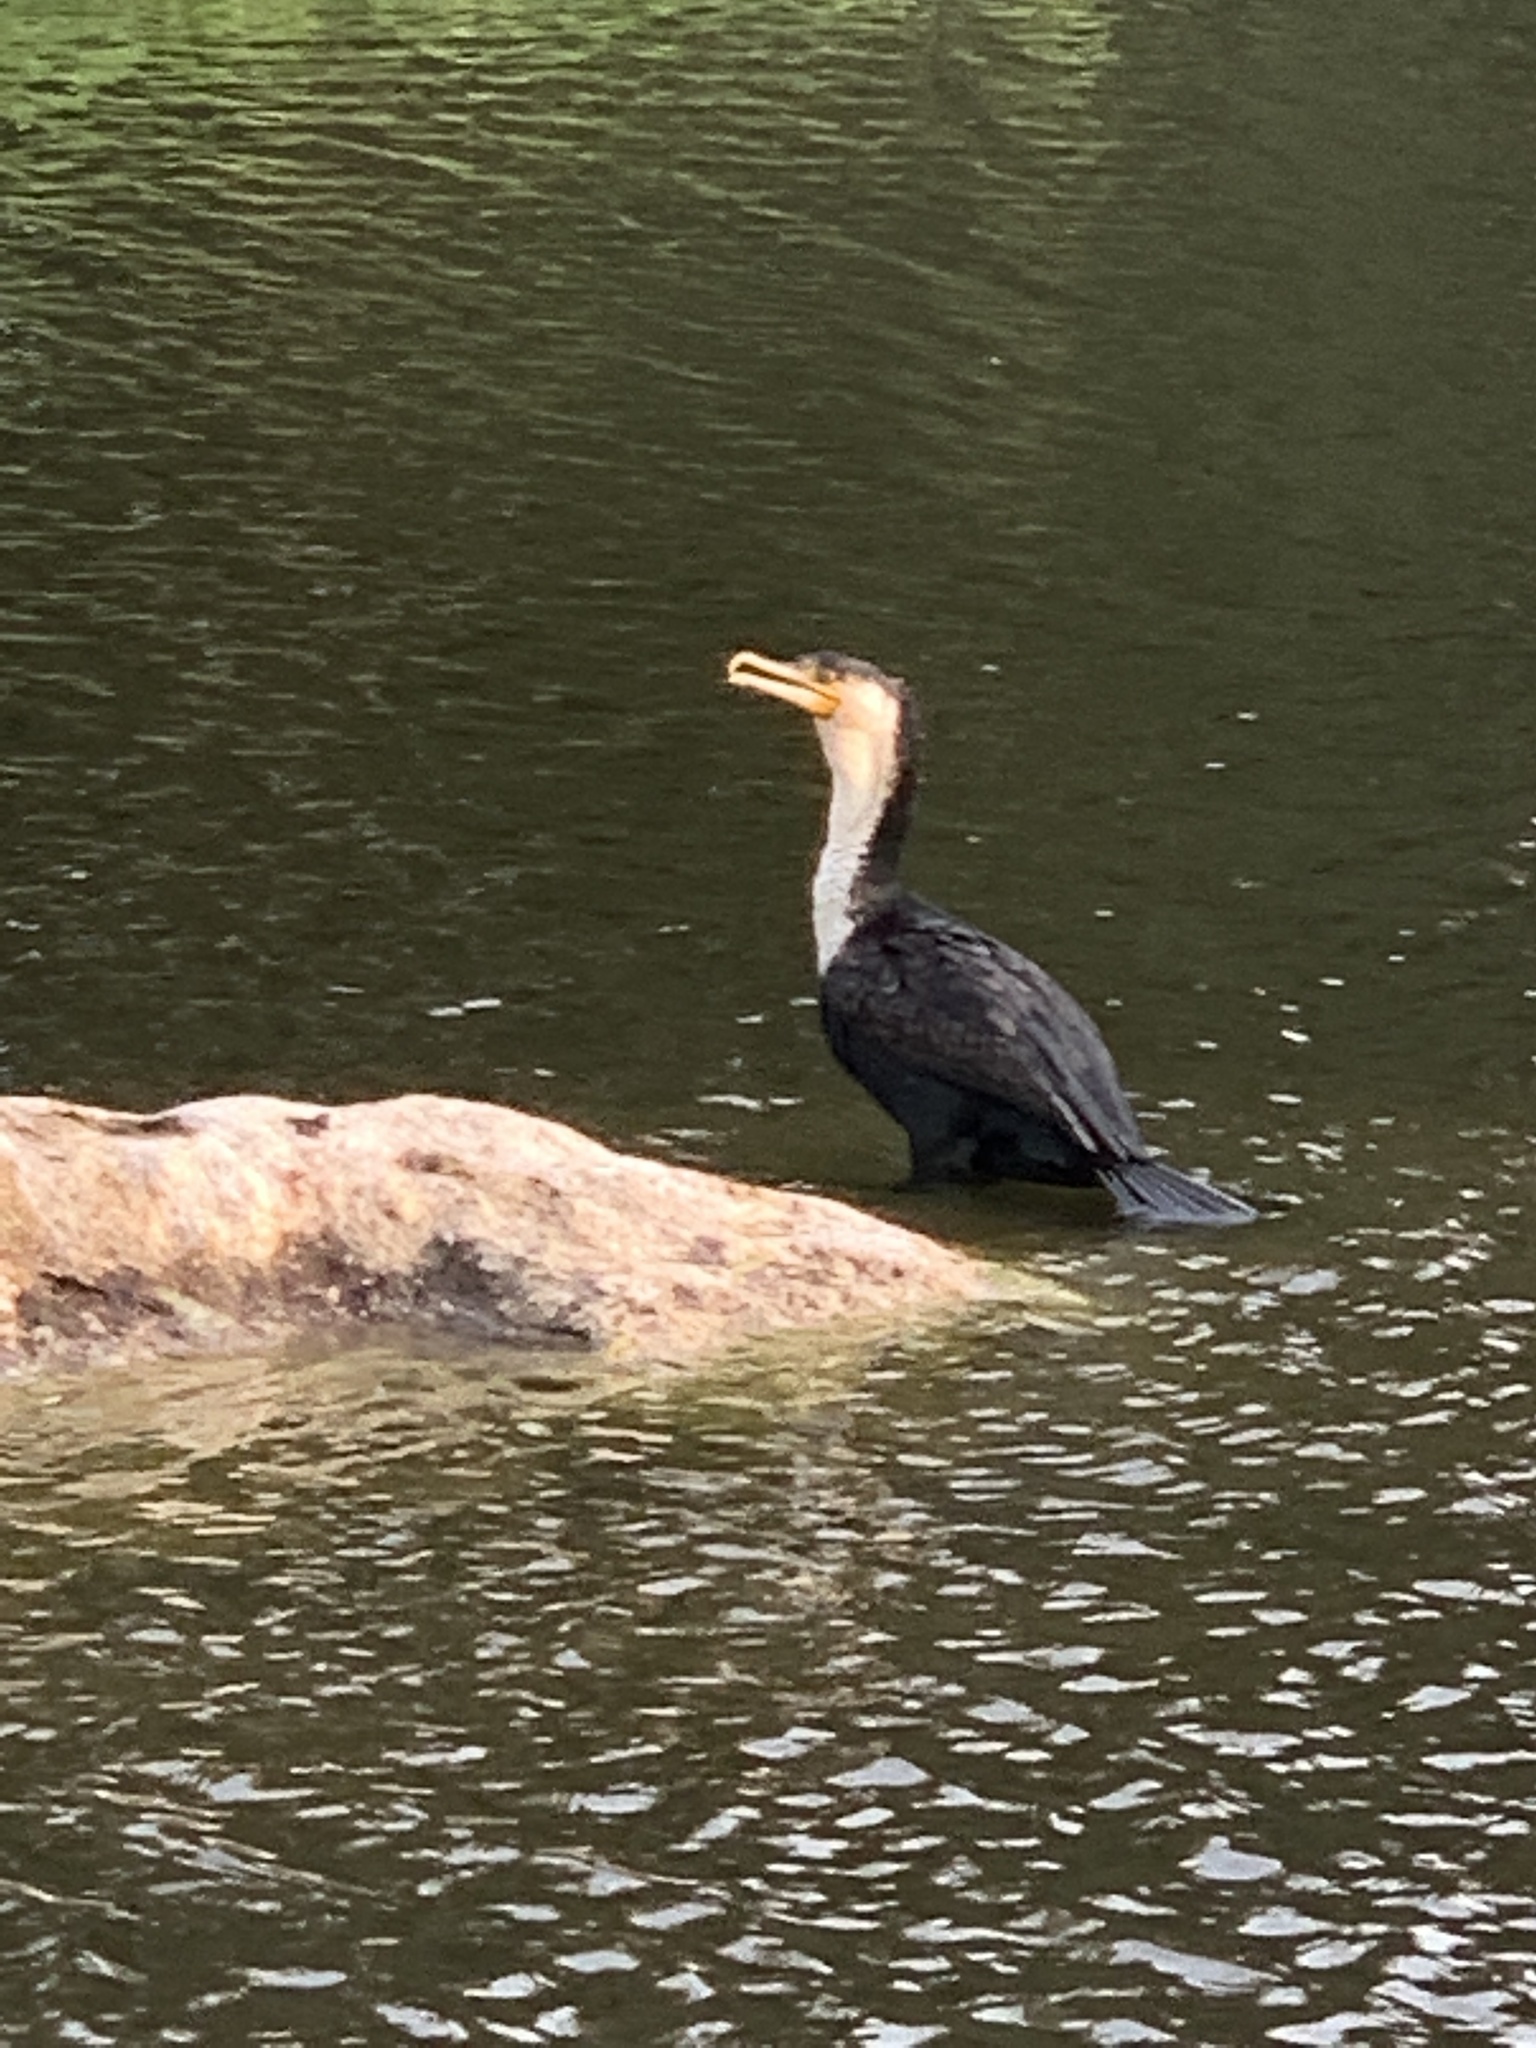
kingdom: Animalia
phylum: Chordata
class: Aves
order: Suliformes
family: Phalacrocoracidae
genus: Phalacrocorax
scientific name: Phalacrocorax carbo
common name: Great cormorant
